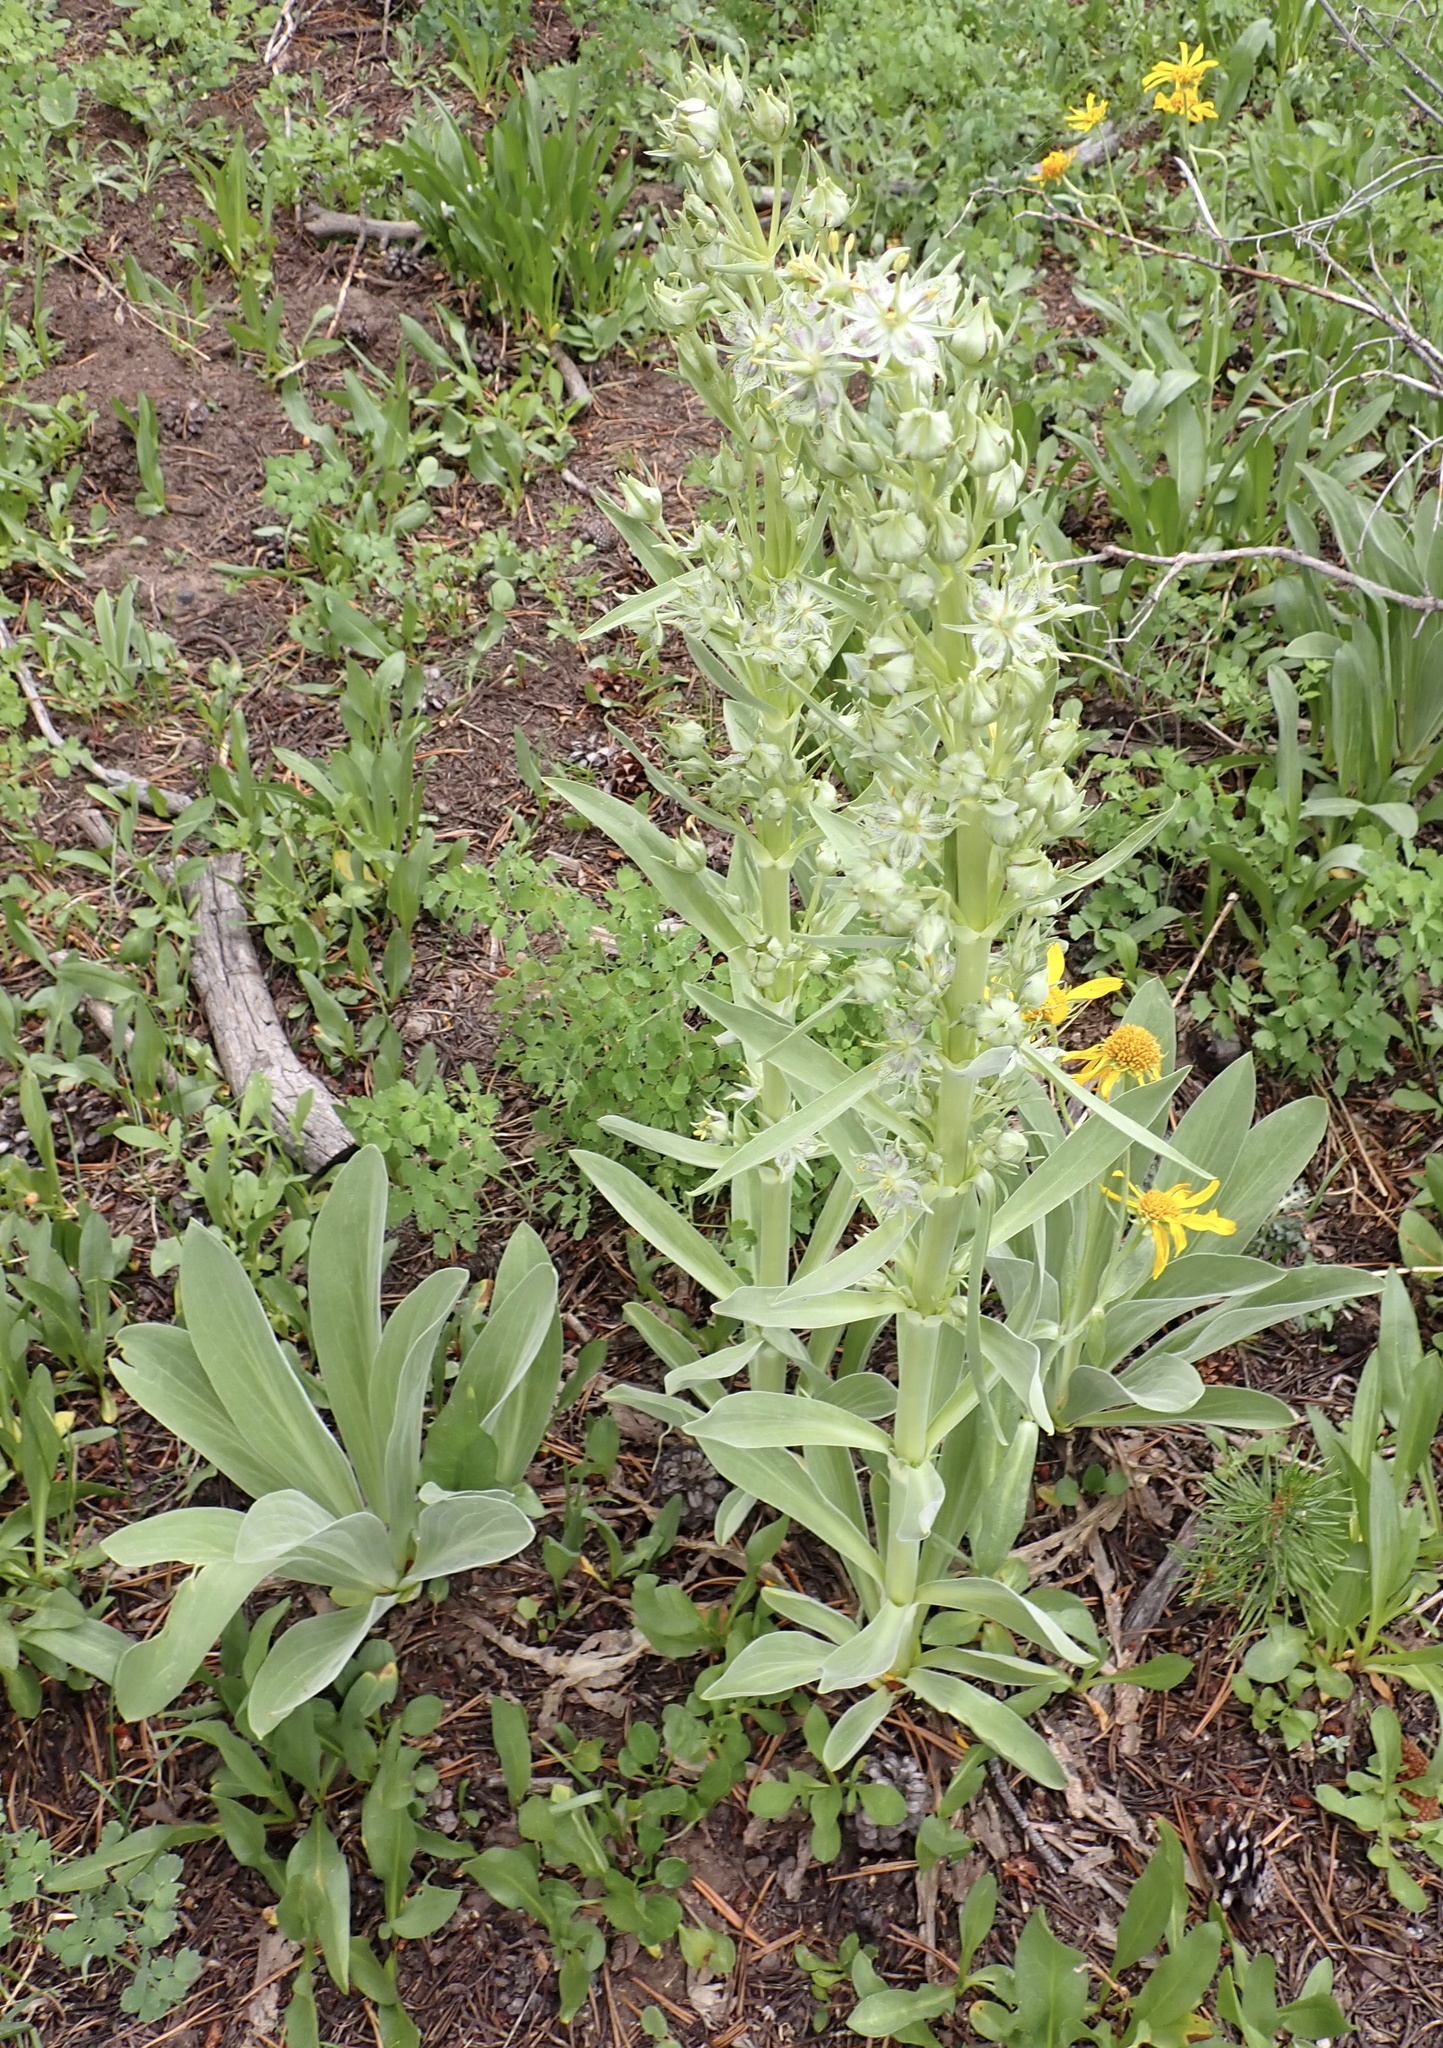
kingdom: Plantae
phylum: Tracheophyta
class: Magnoliopsida
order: Gentianales
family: Gentianaceae
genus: Frasera
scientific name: Frasera speciosa
